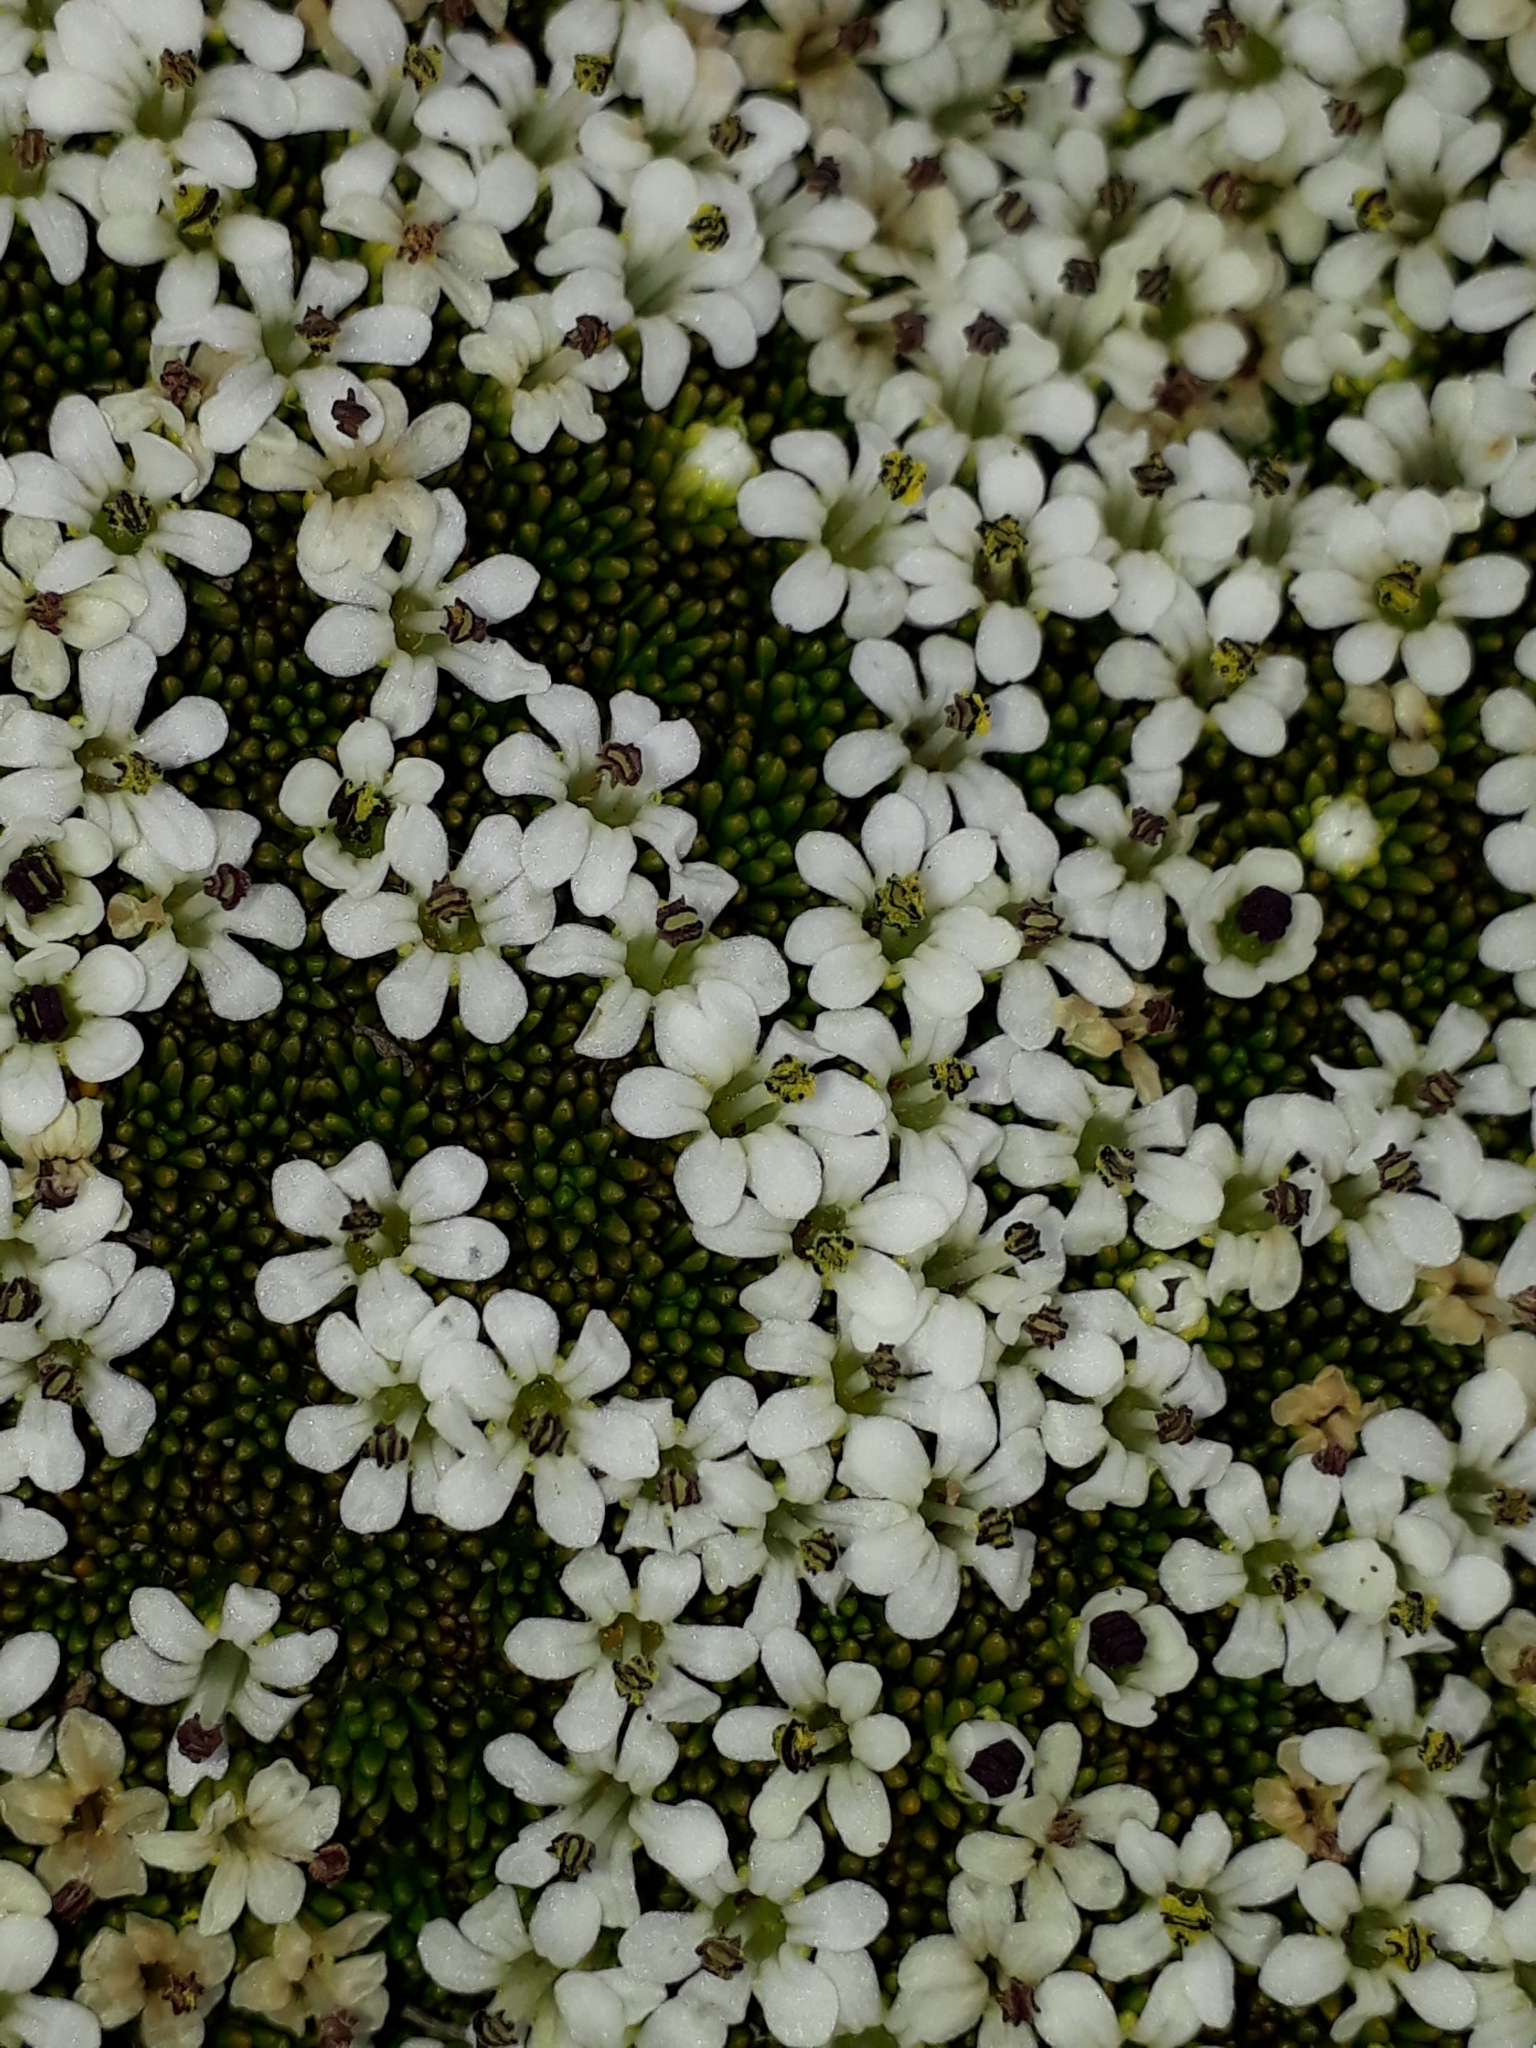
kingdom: Plantae
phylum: Tracheophyta
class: Magnoliopsida
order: Asterales
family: Stylidiaceae
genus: Phyllachne
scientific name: Phyllachne colensoi
